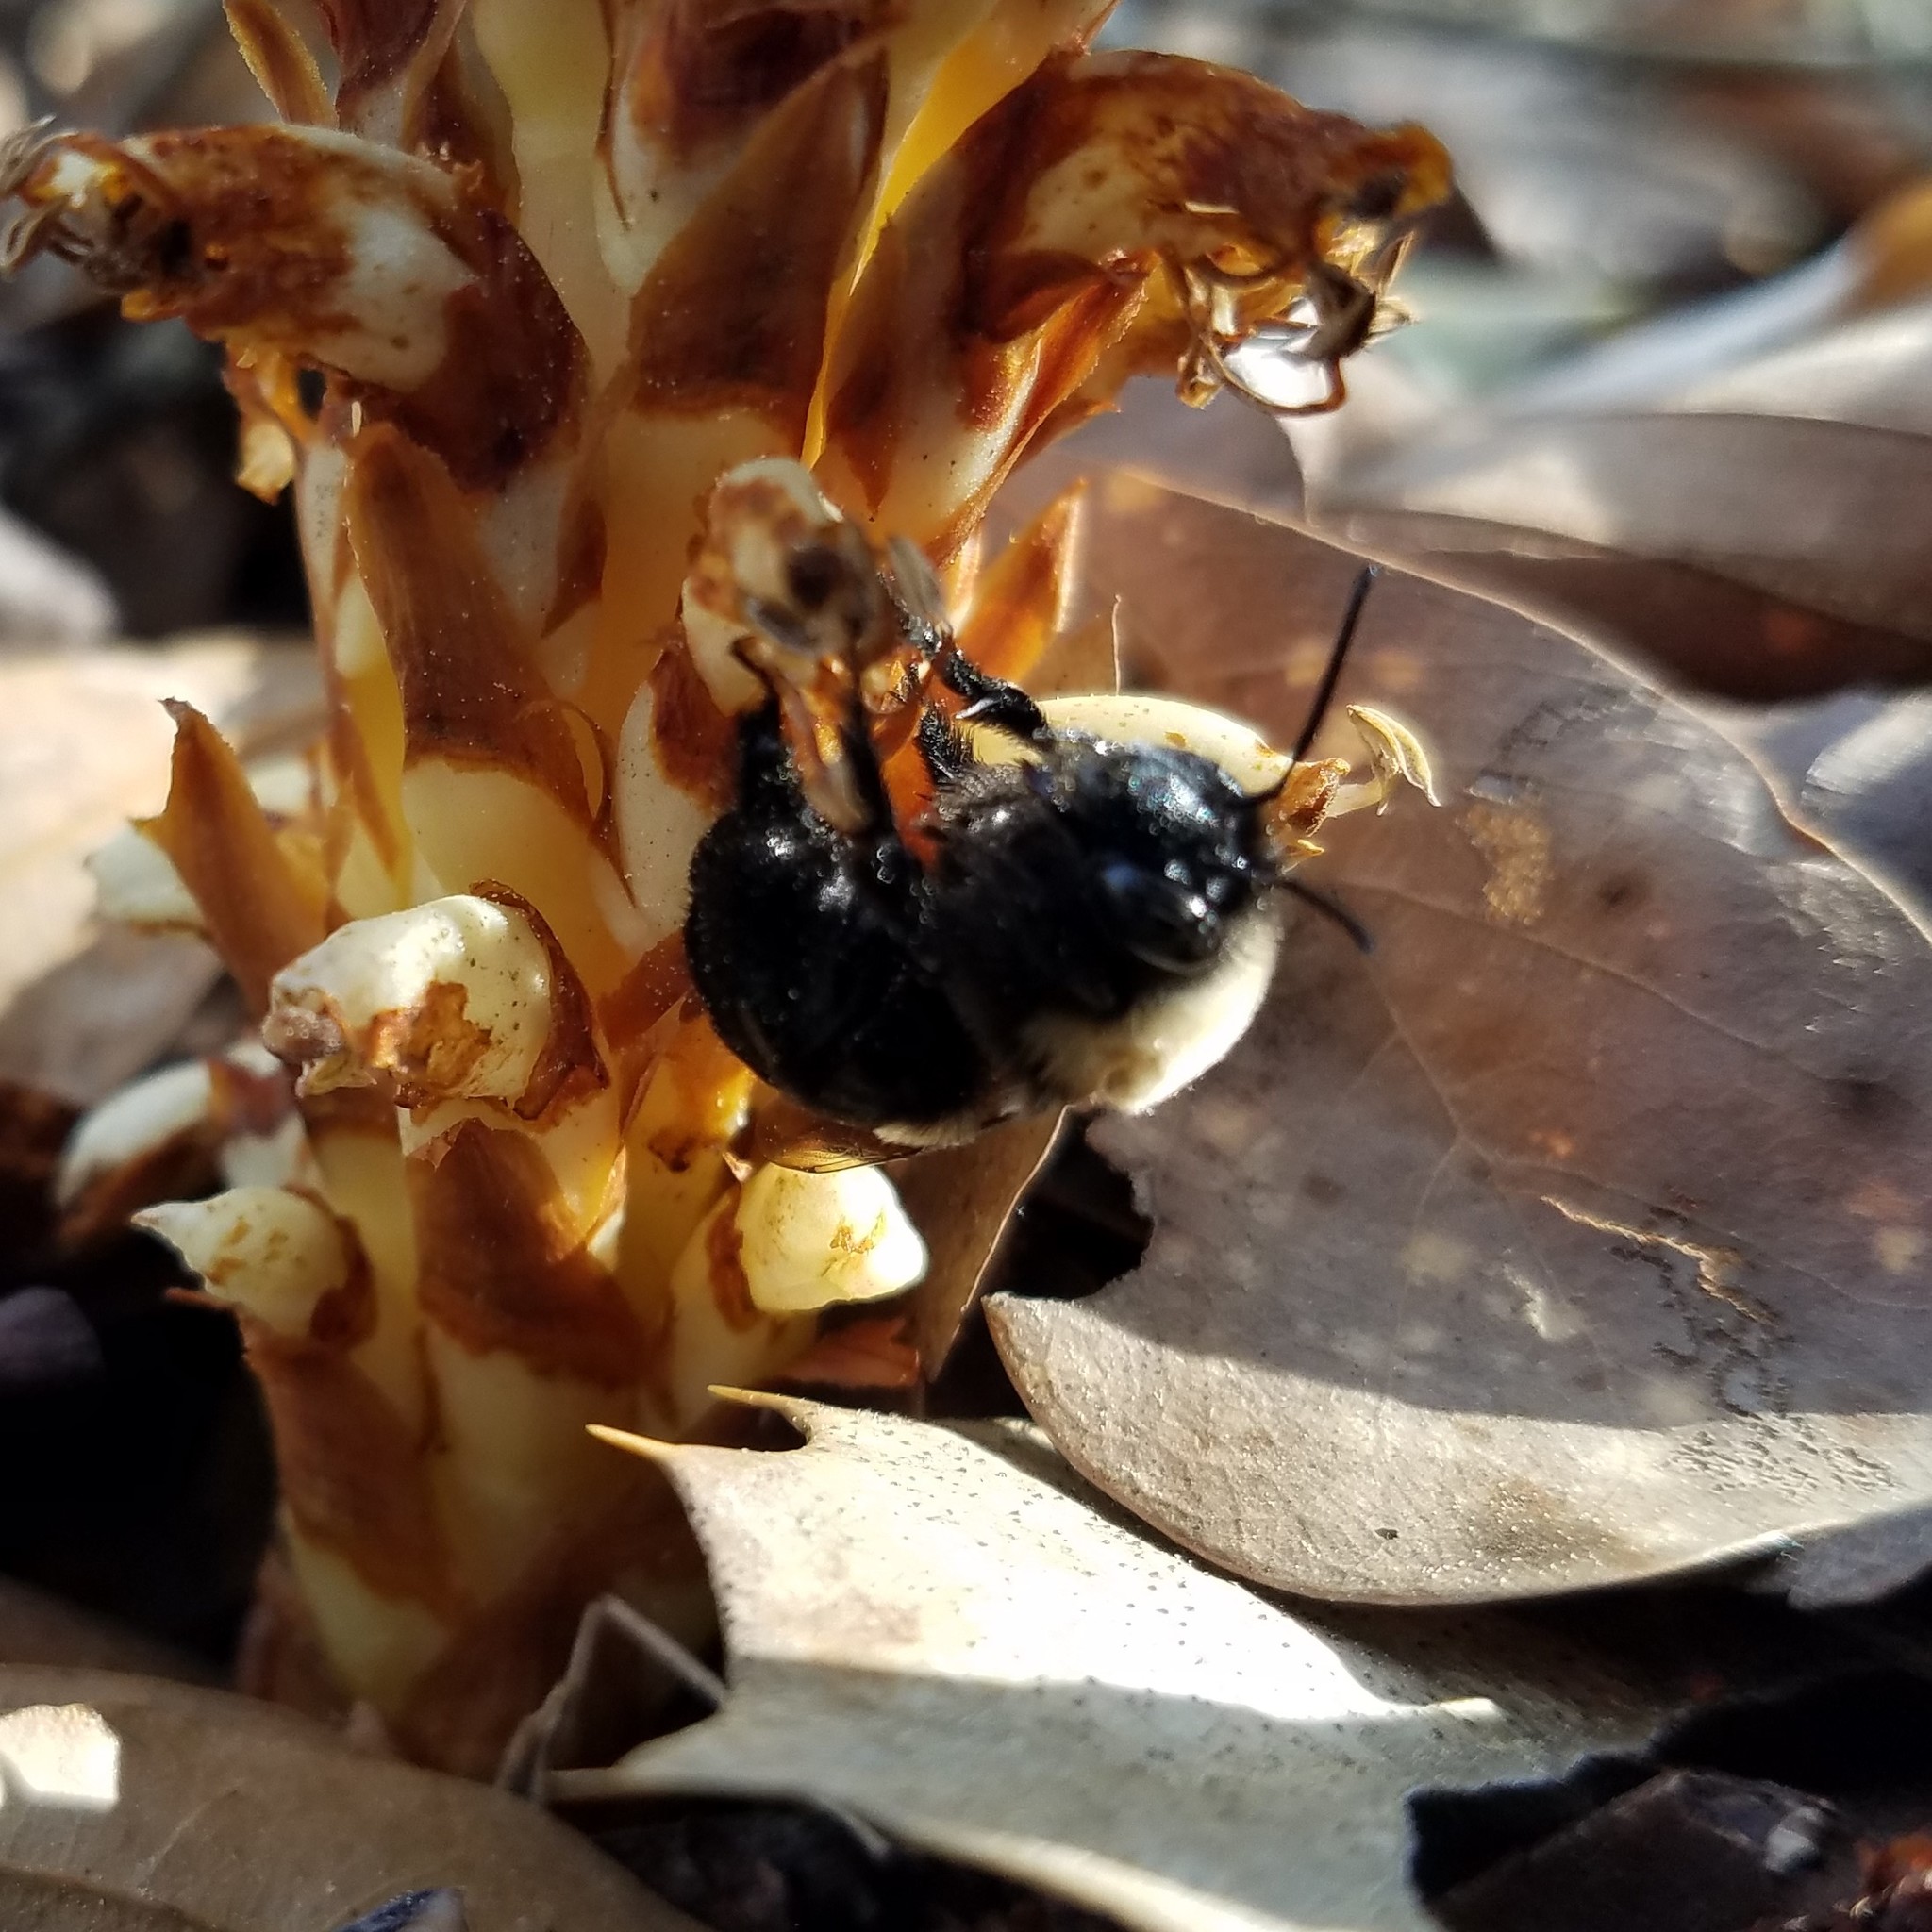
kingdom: Animalia
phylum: Arthropoda
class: Insecta
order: Hymenoptera
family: Apidae
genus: Habropoda
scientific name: Habropoda laboriosa
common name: Southeastern blueberry bee
